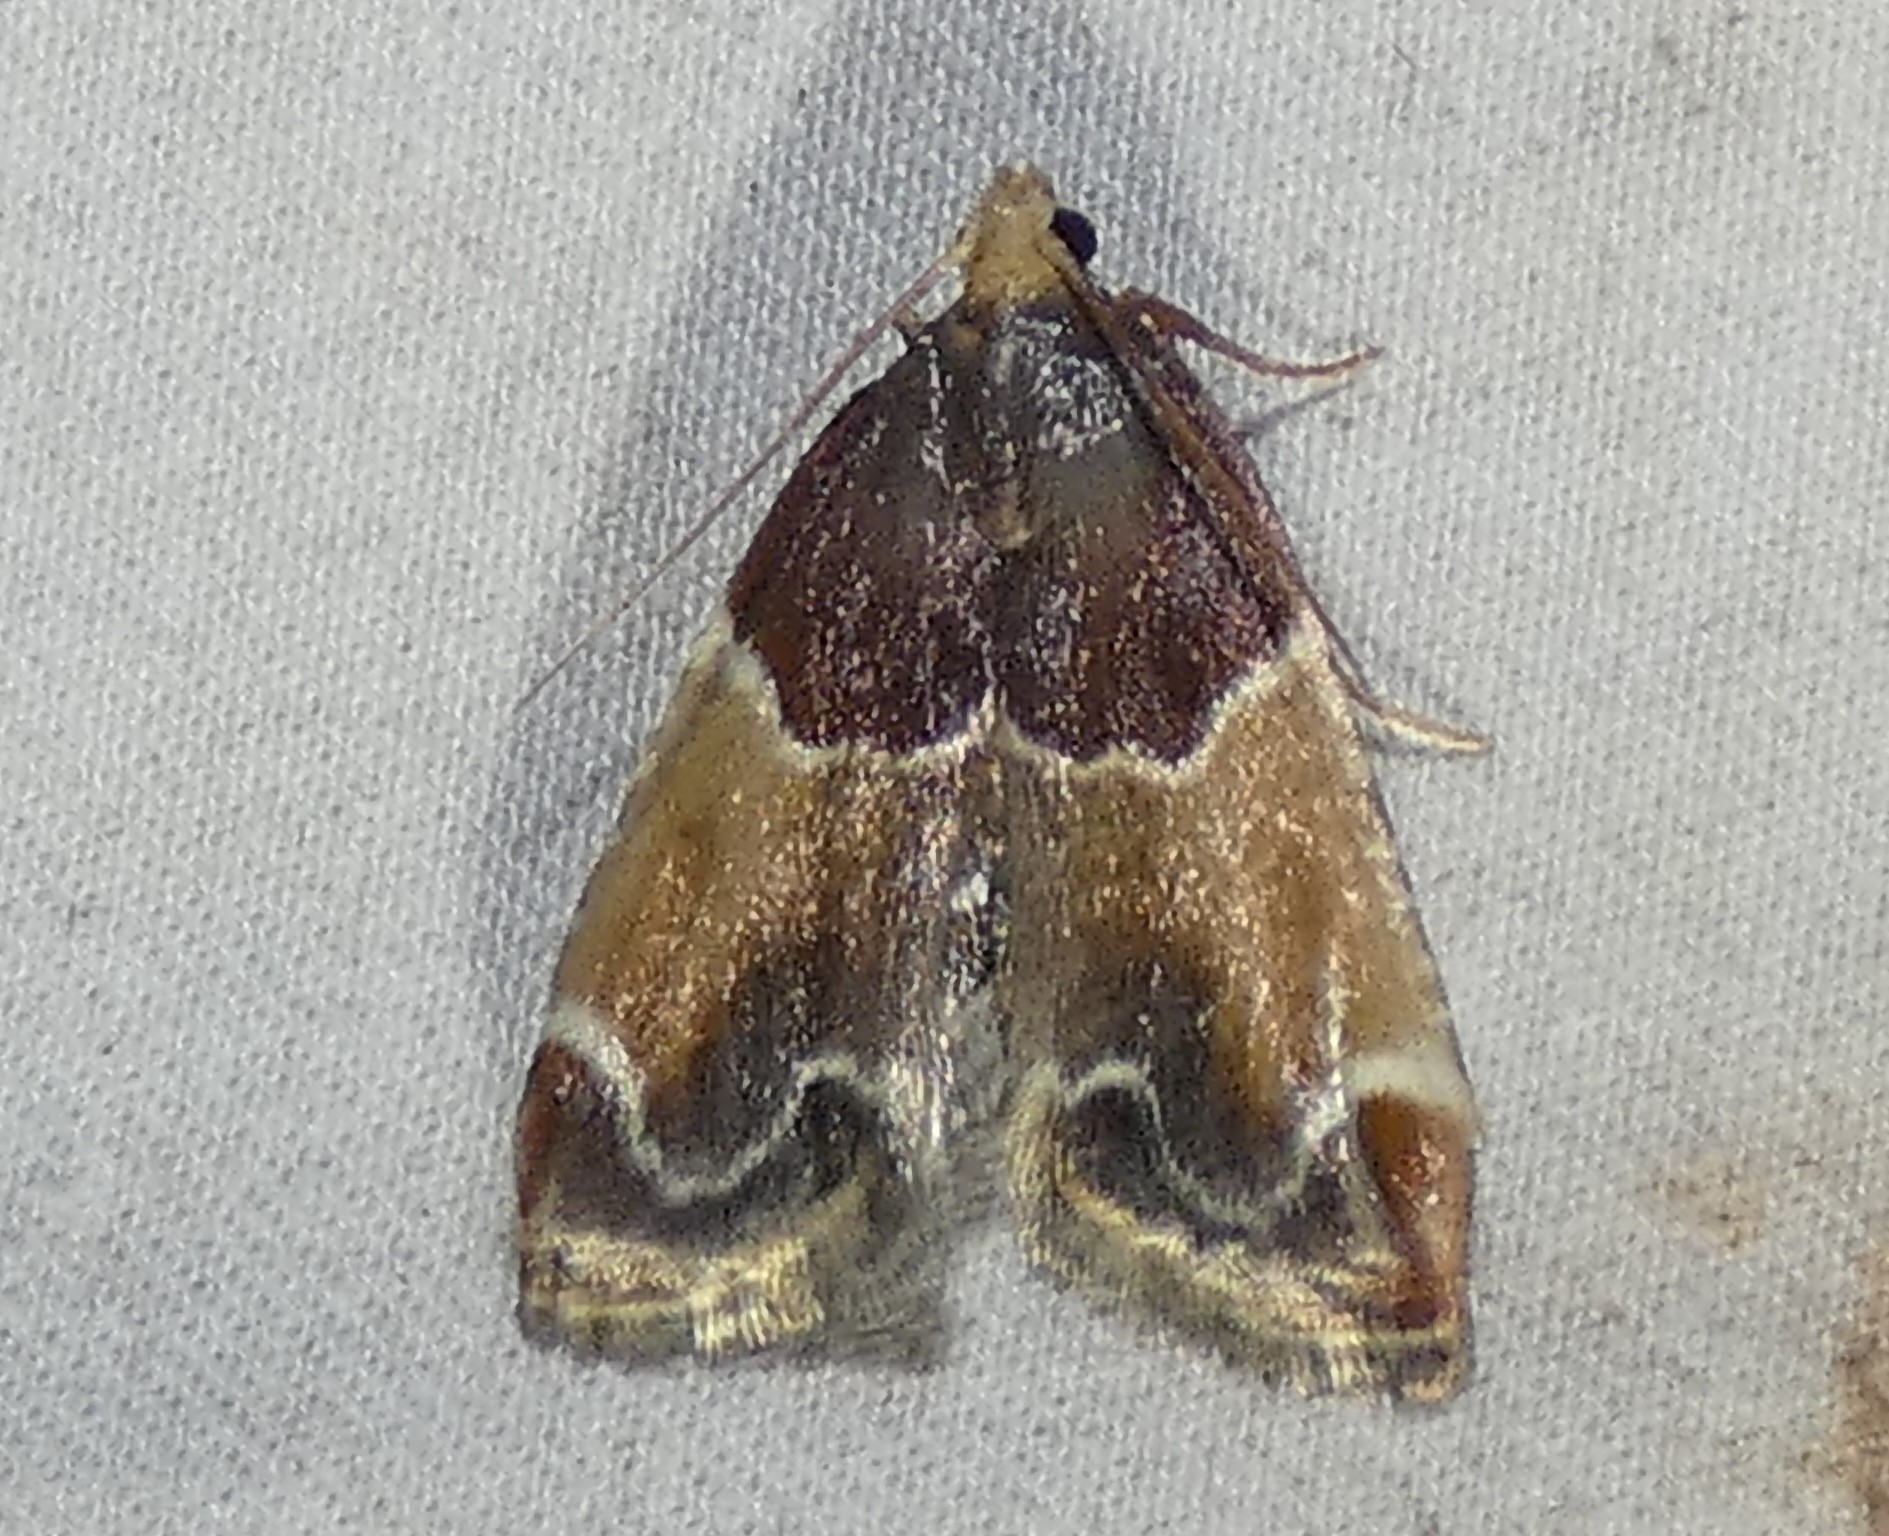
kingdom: Animalia
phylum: Arthropoda
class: Insecta
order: Lepidoptera
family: Pyralidae
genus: Pyralis
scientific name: Pyralis farinalis
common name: Meal moth
